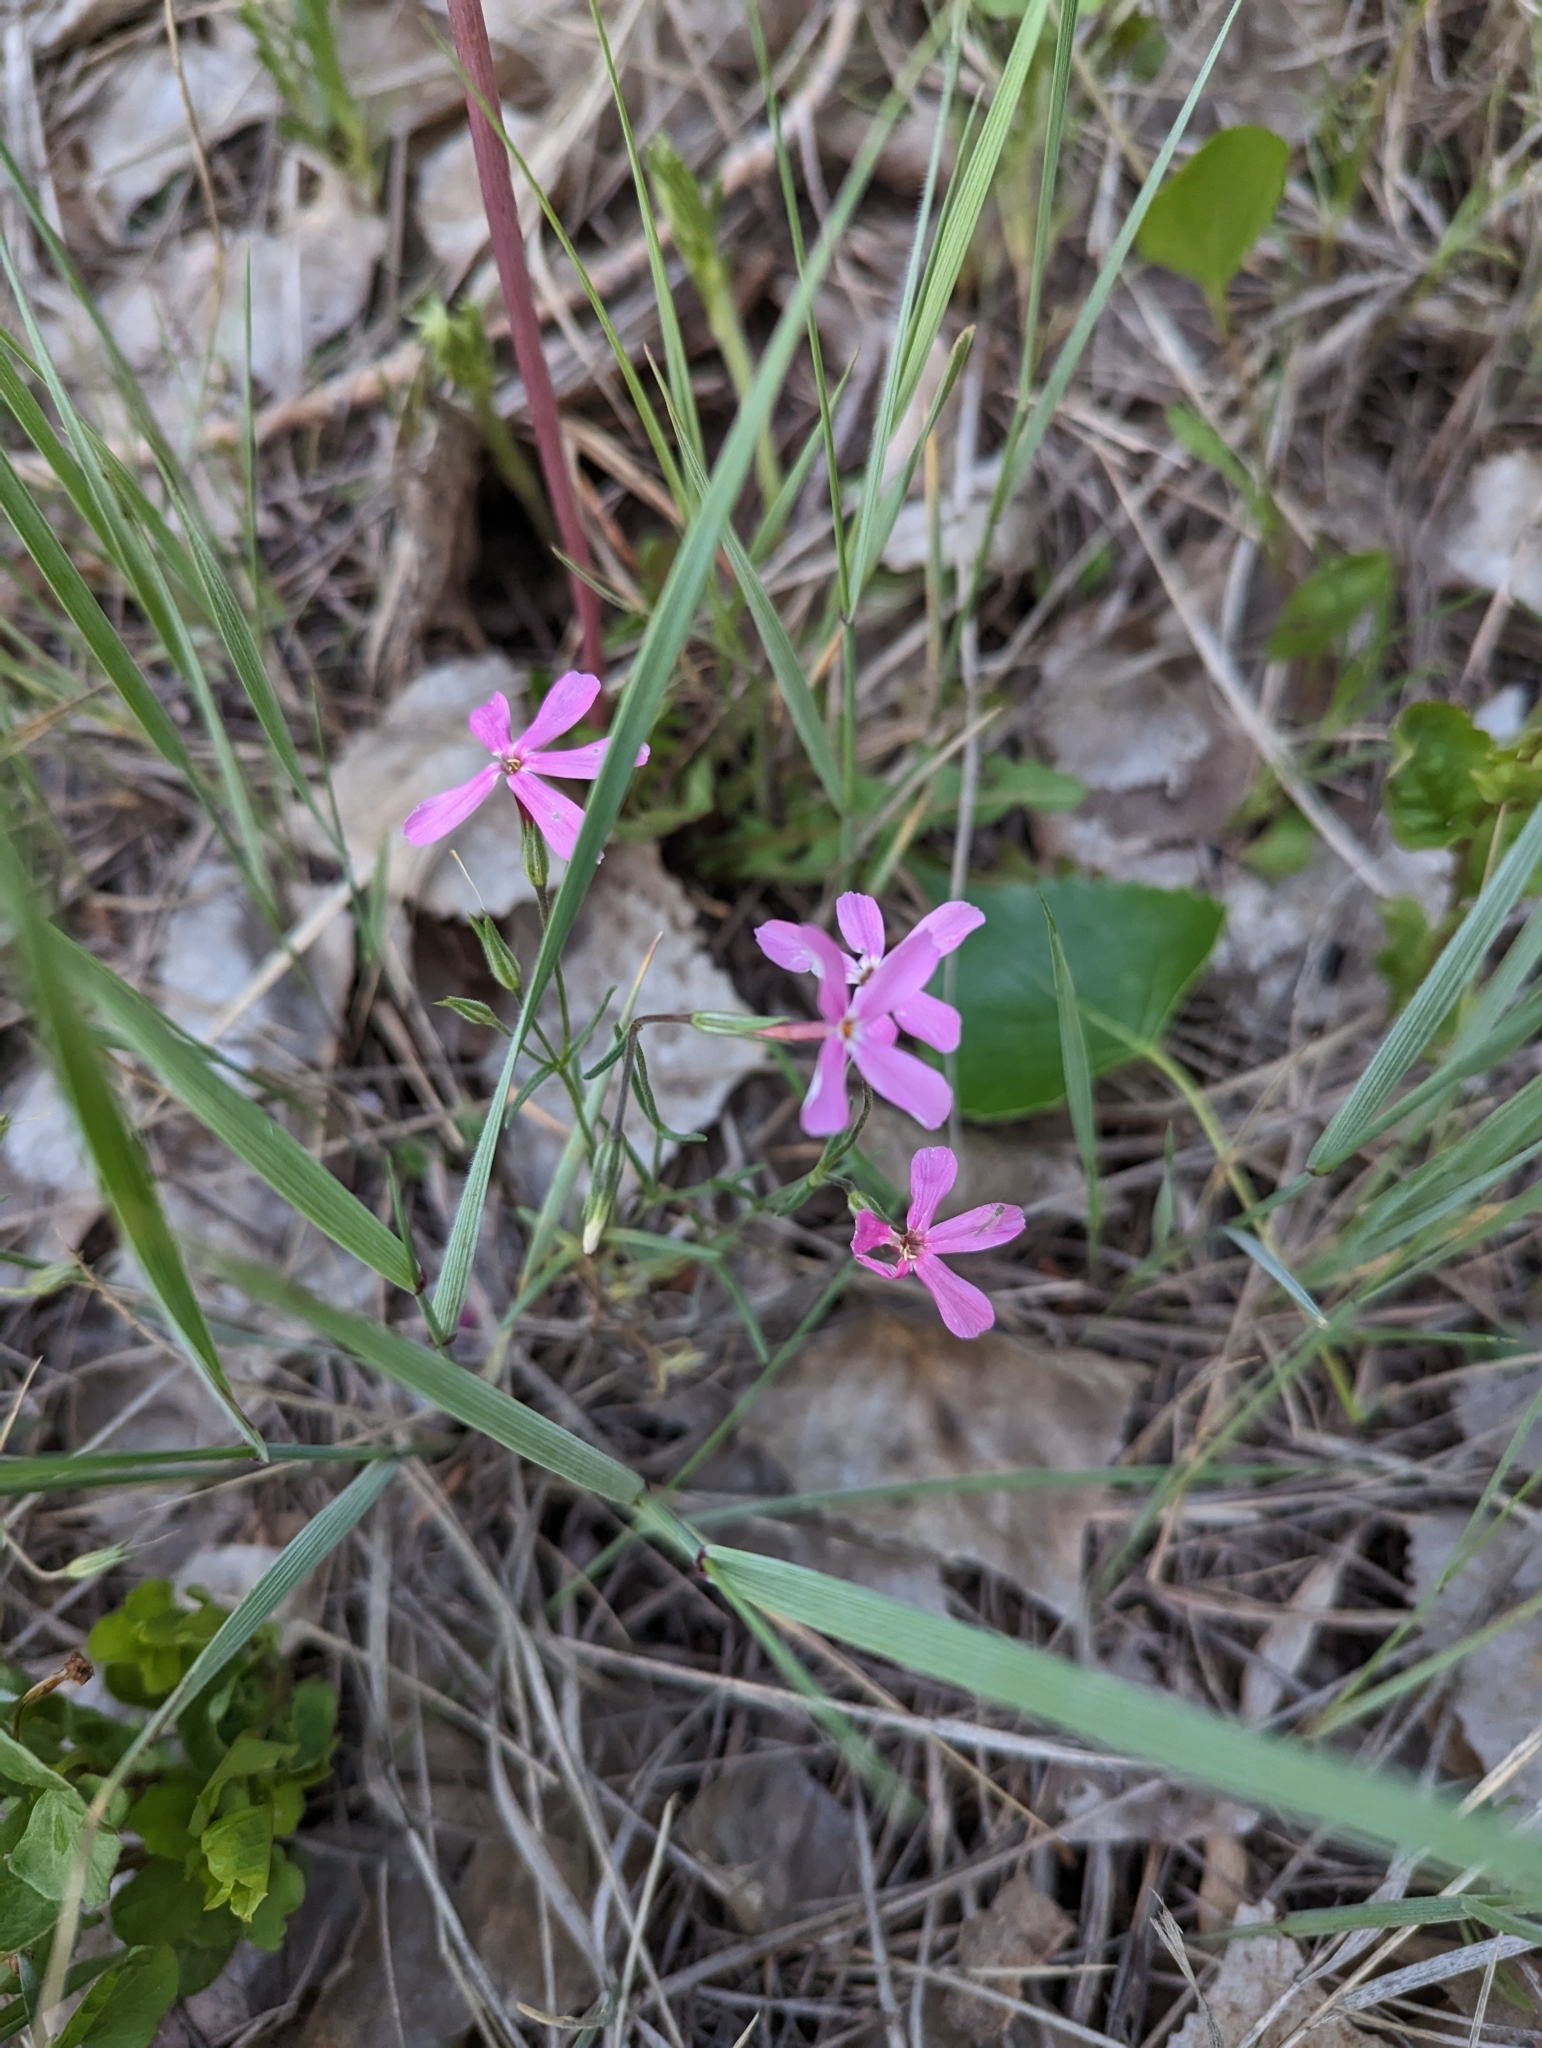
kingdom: Plantae
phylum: Tracheophyta
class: Magnoliopsida
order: Ericales
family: Polemoniaceae
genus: Phlox
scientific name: Phlox longifolia
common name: Longleaf phlox
